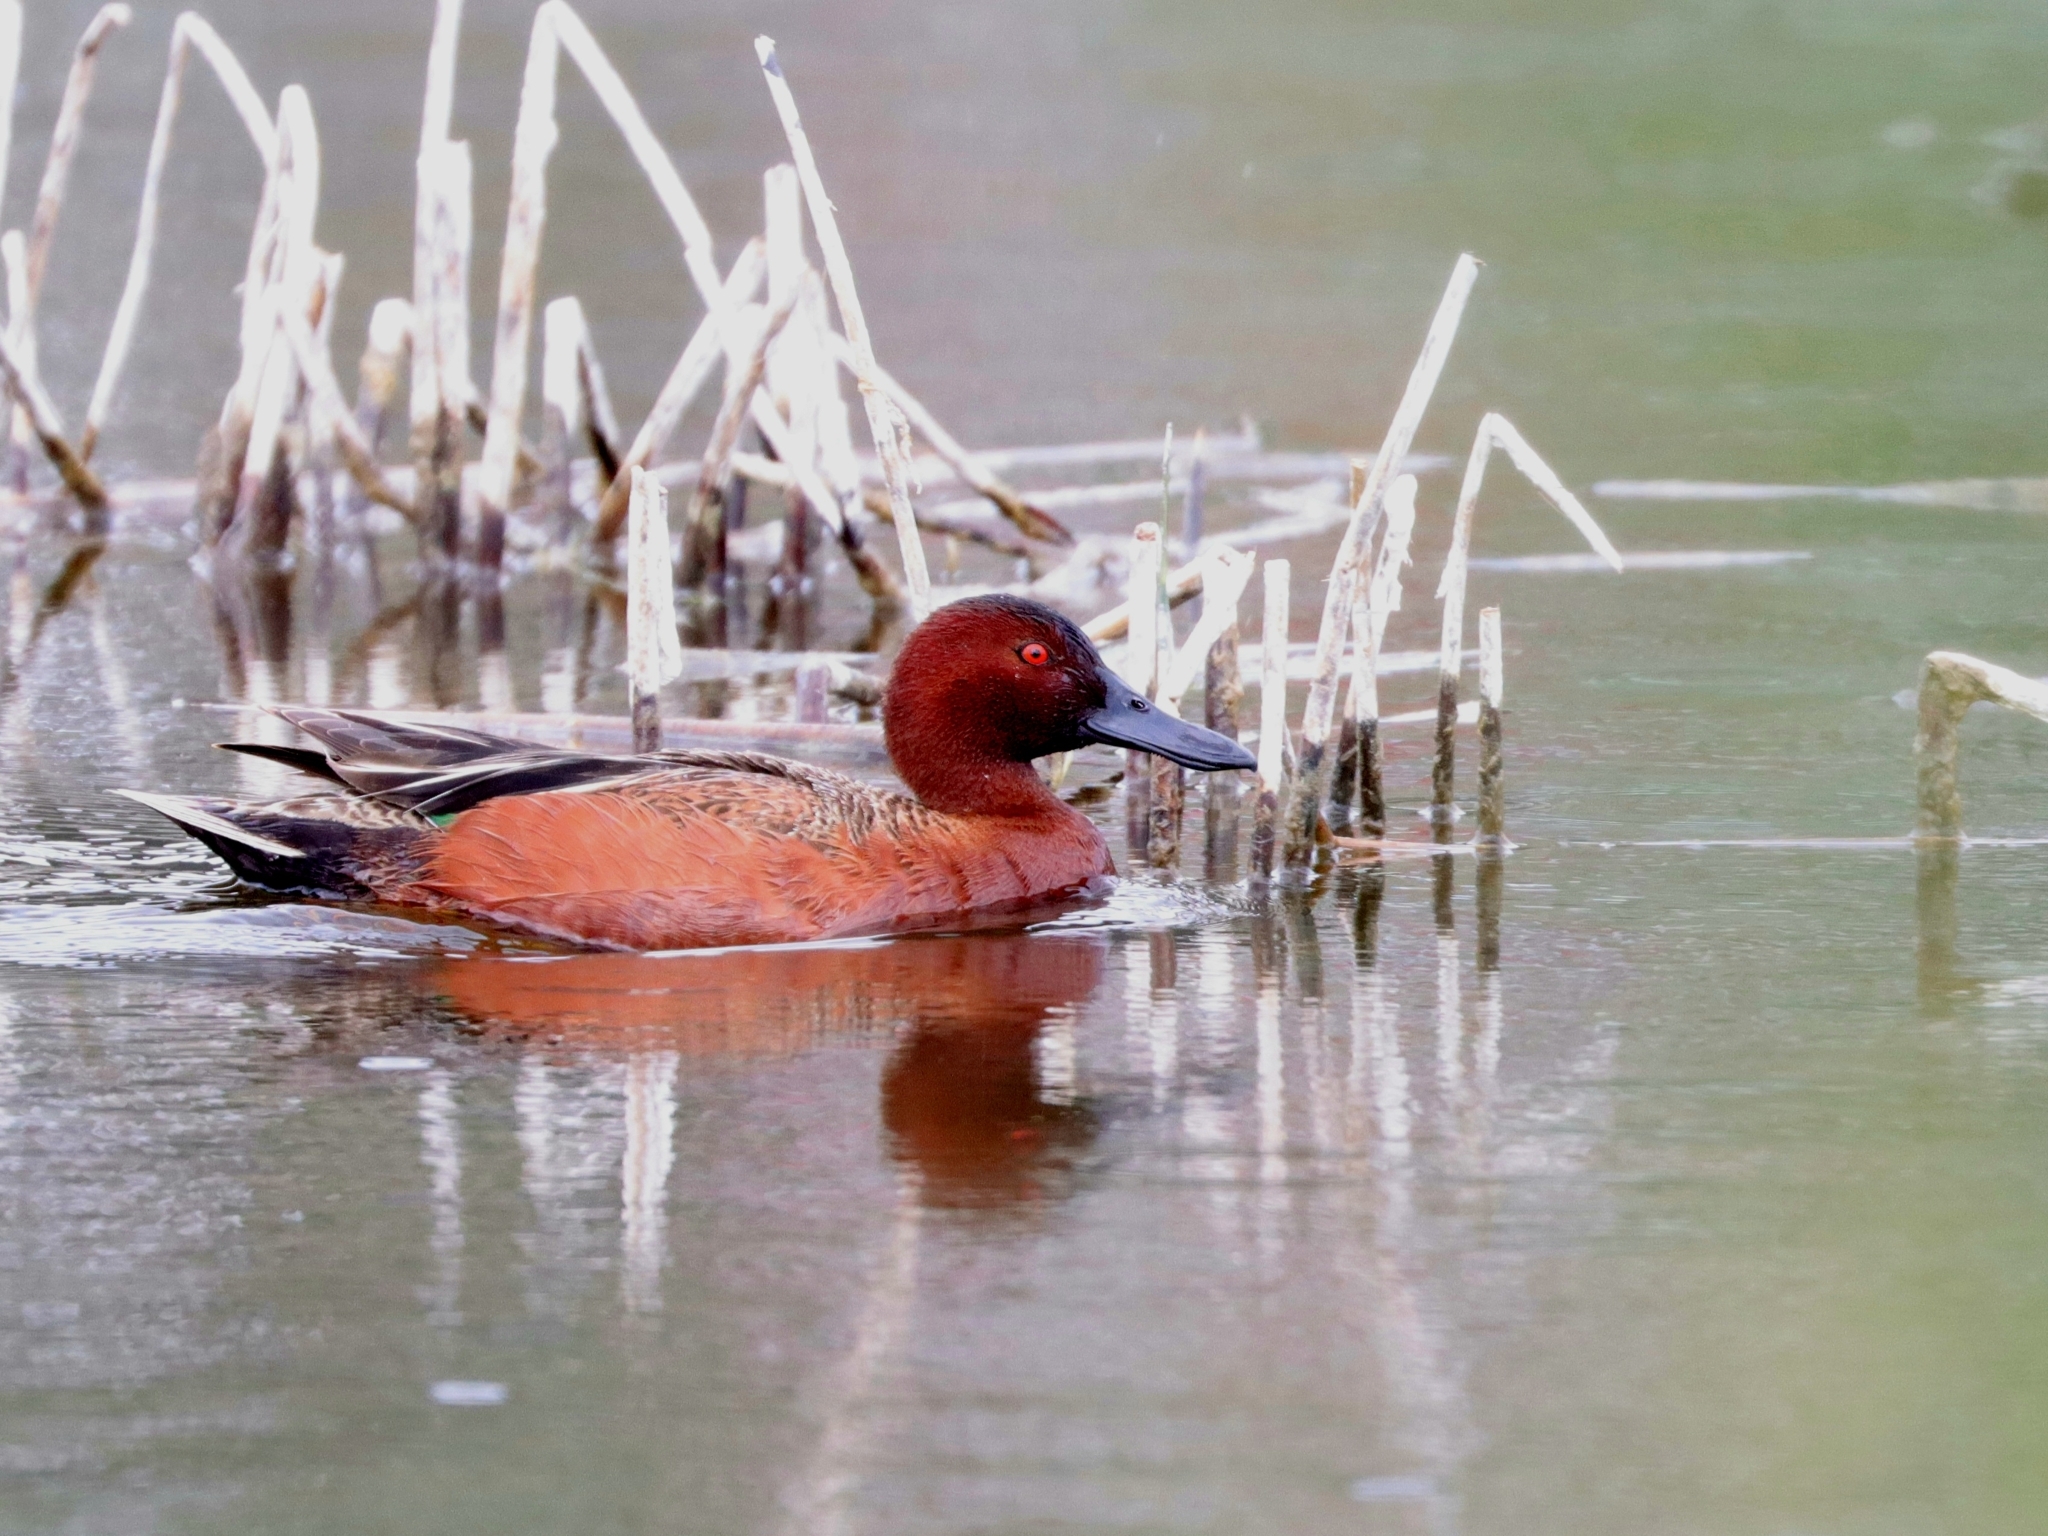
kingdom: Animalia
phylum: Chordata
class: Aves
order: Anseriformes
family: Anatidae
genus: Spatula
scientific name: Spatula cyanoptera
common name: Cinnamon teal
